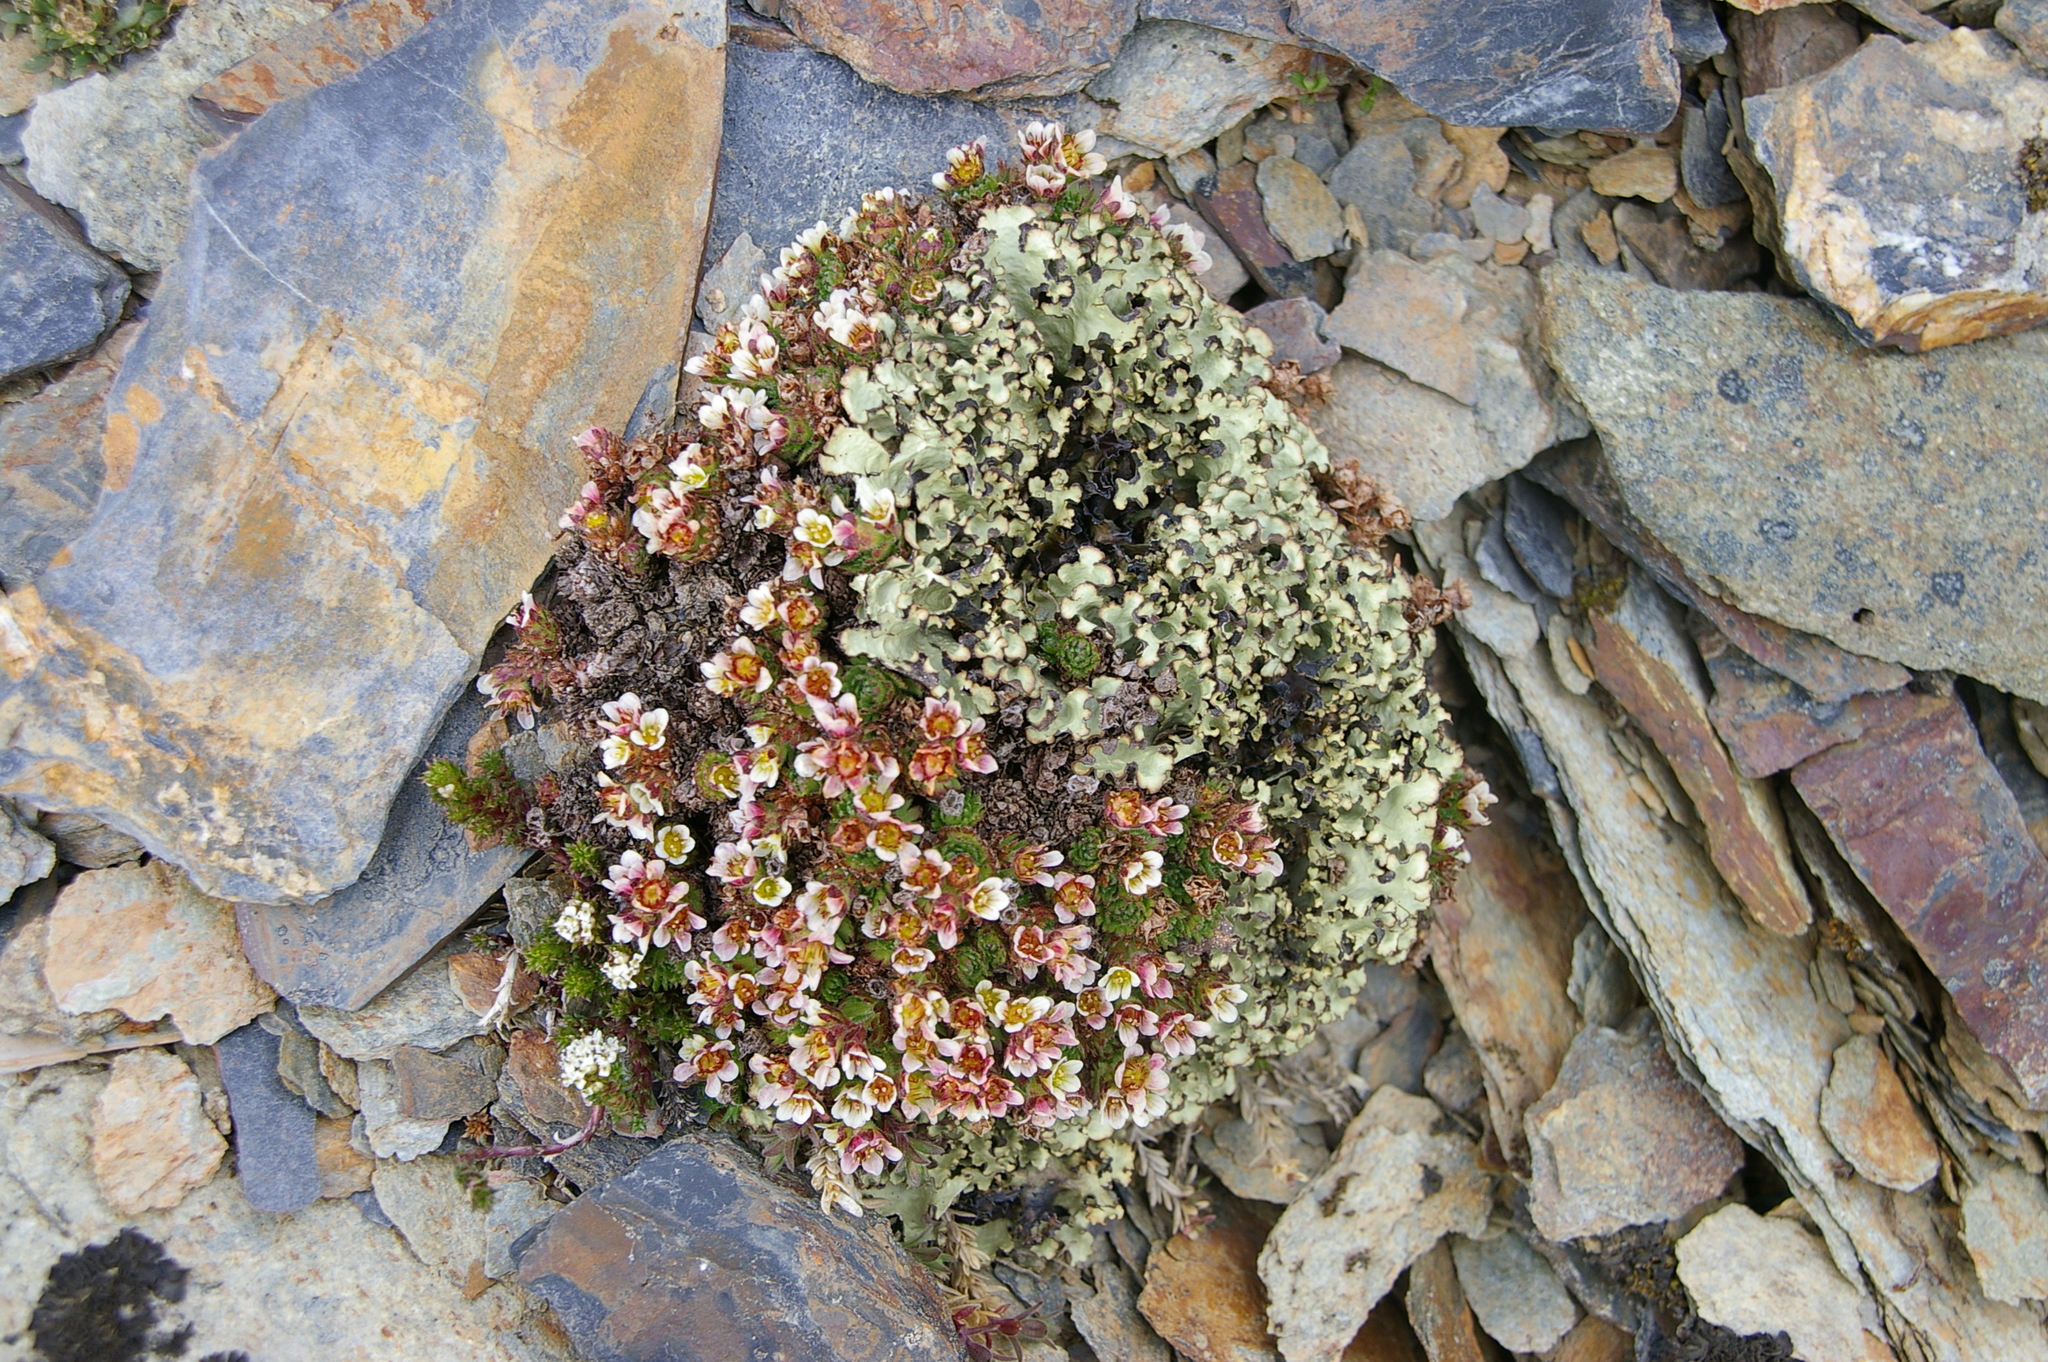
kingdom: Plantae
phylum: Tracheophyta
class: Magnoliopsida
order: Saxifragales
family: Saxifragaceae
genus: Saxifraga
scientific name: Saxifraga magellanica
